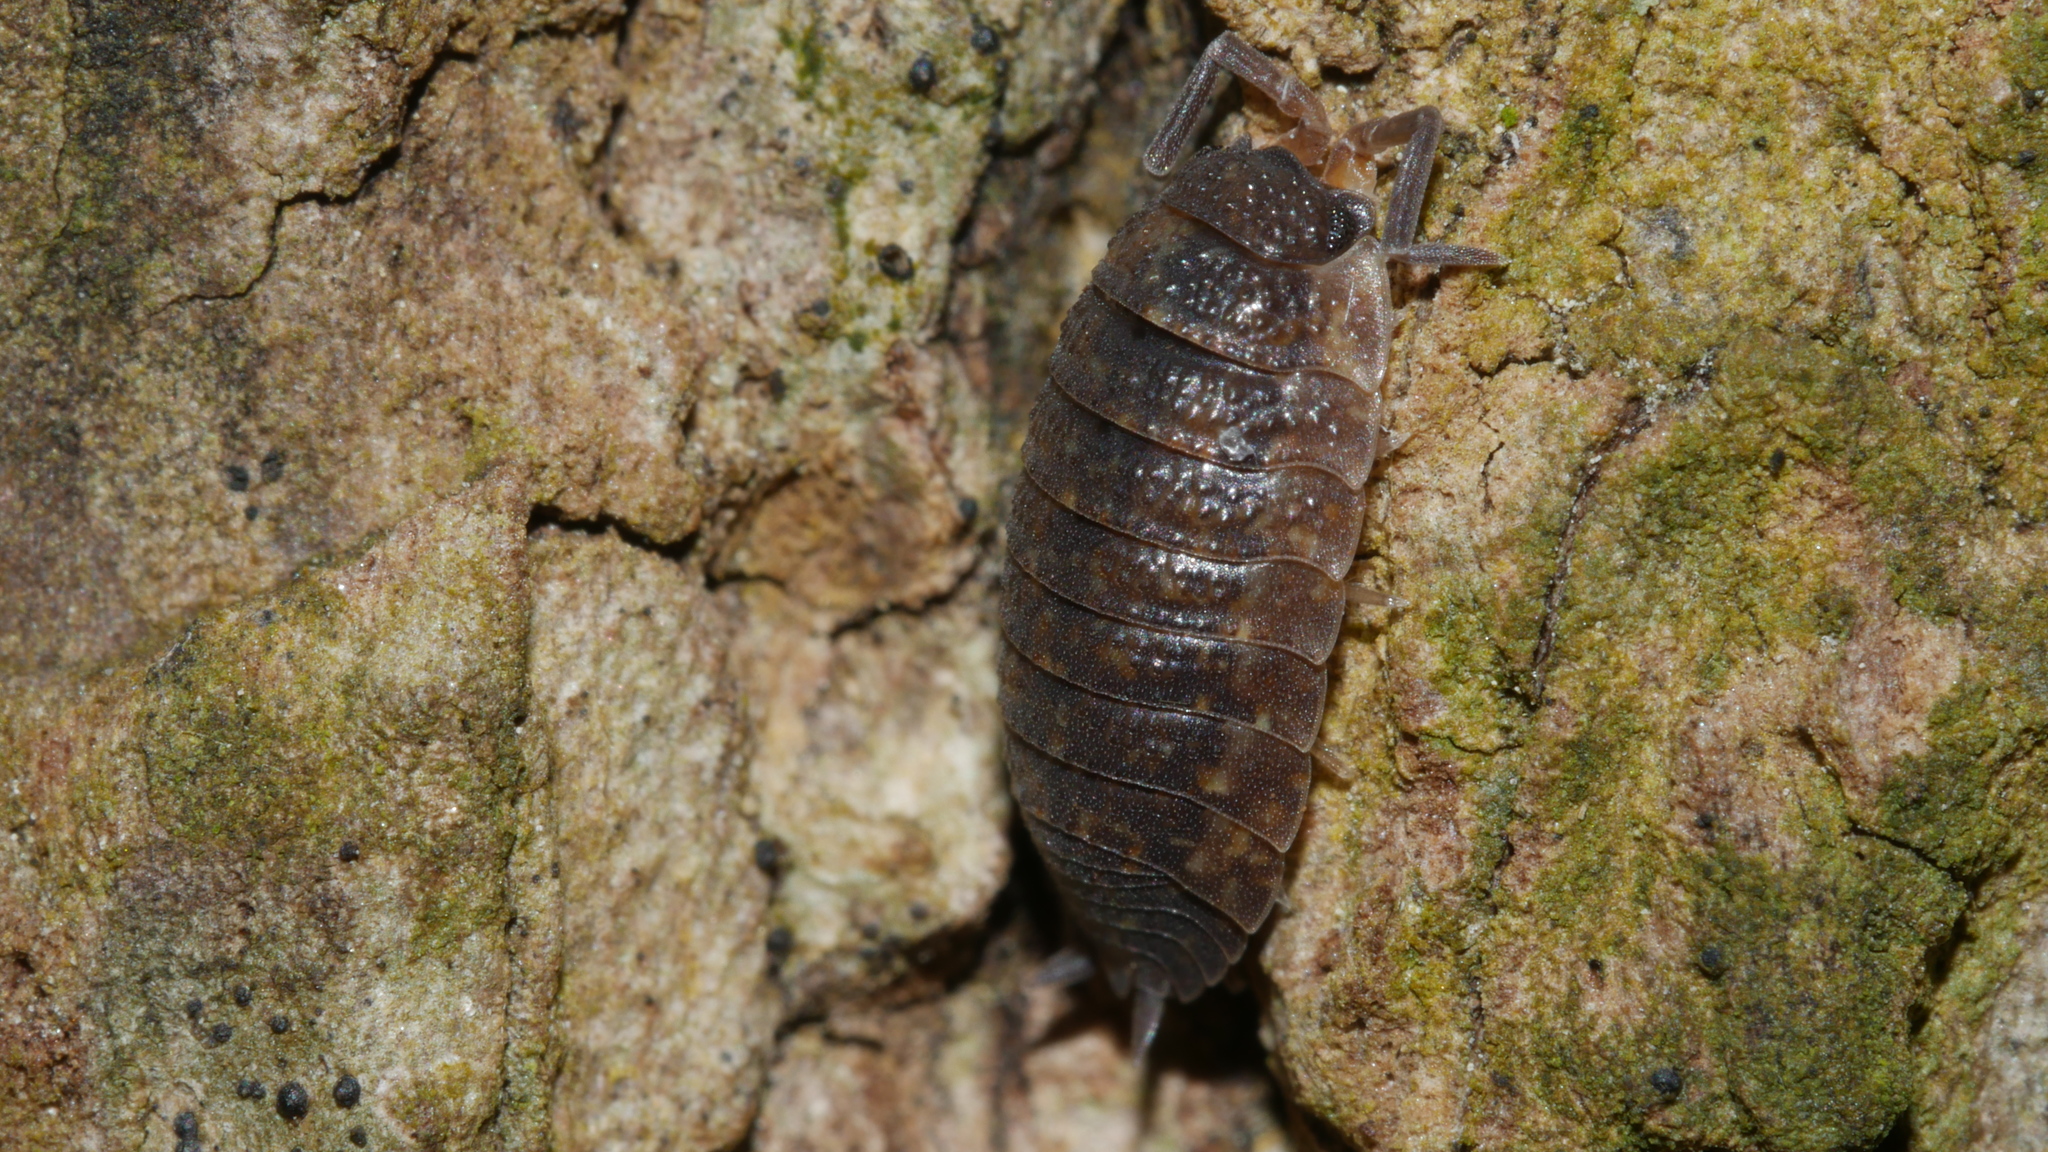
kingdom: Animalia
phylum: Arthropoda
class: Malacostraca
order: Isopoda
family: Porcellionidae
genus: Porcellio
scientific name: Porcellio scaber
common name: Common rough woodlouse
